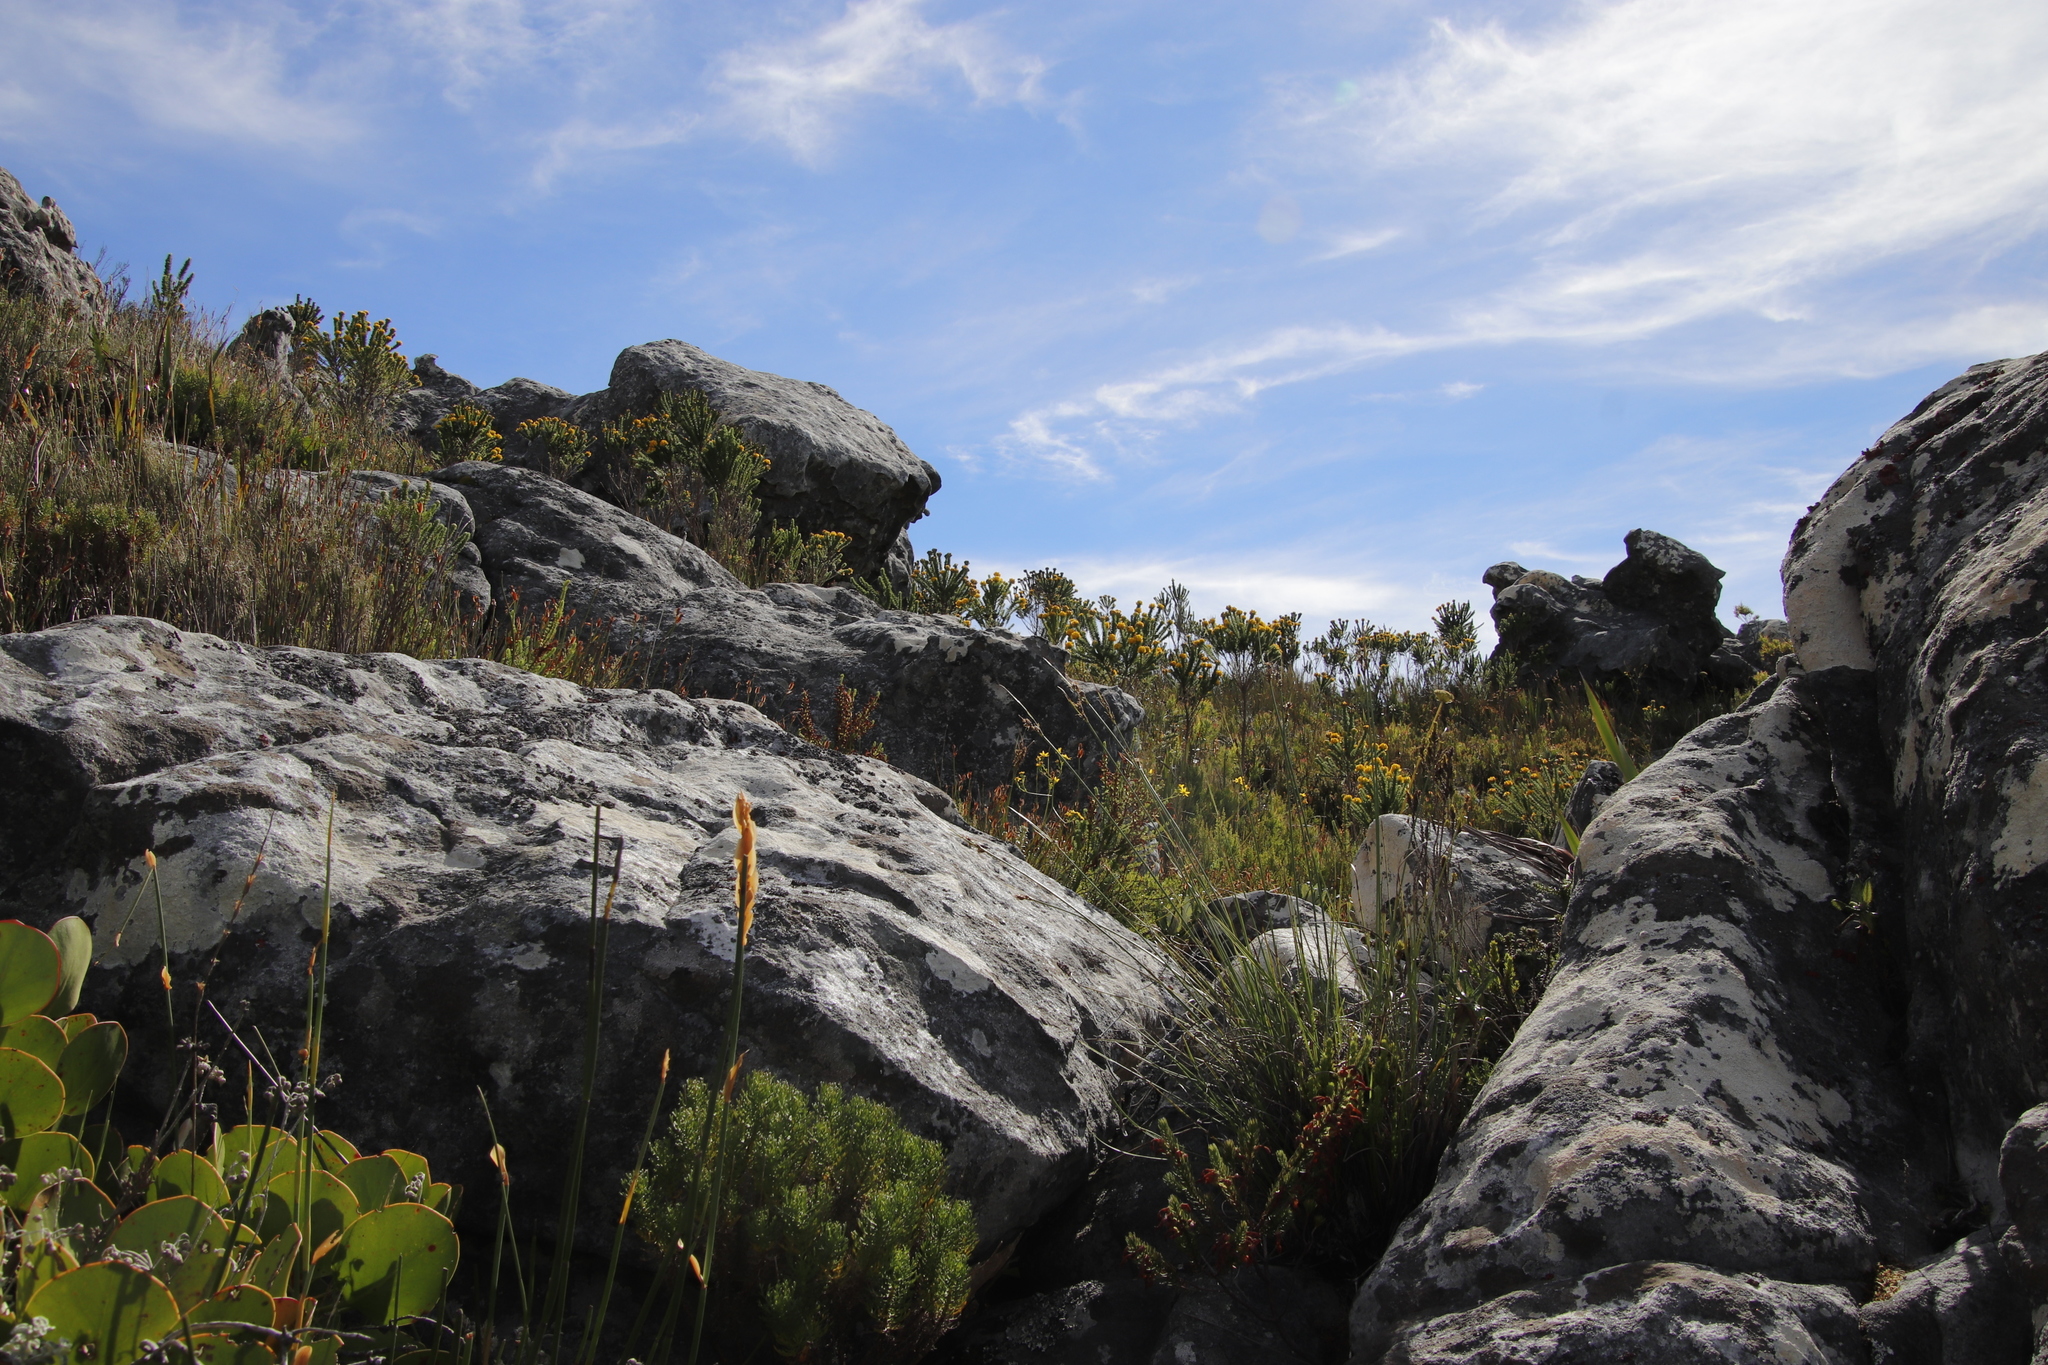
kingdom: Plantae
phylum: Tracheophyta
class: Magnoliopsida
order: Fabales
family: Fabaceae
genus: Aspalathus
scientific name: Aspalathus capitata
